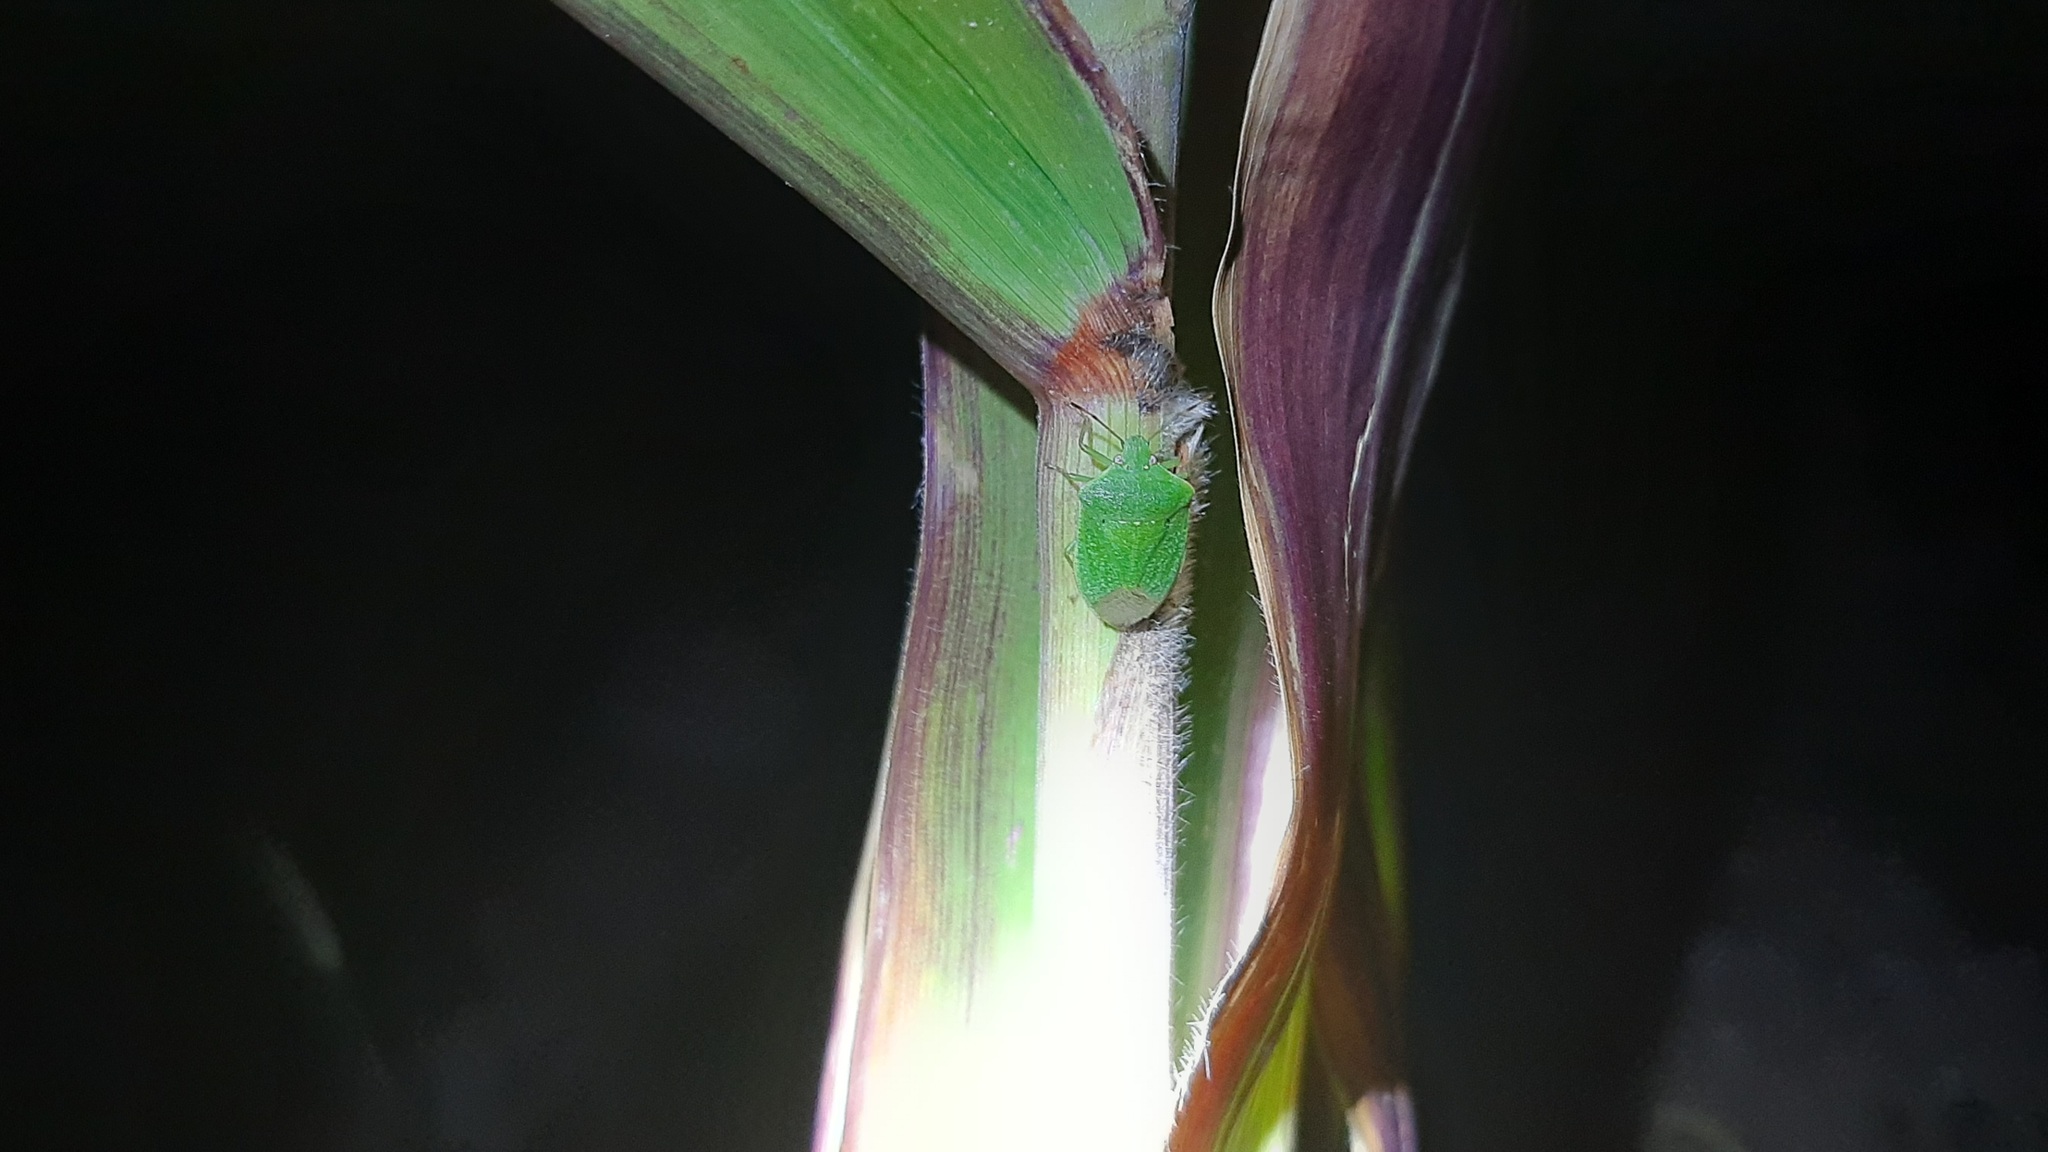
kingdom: Animalia
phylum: Arthropoda
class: Insecta
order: Hemiptera
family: Pentatomidae
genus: Nezara
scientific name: Nezara viridula
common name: Southern green stink bug
